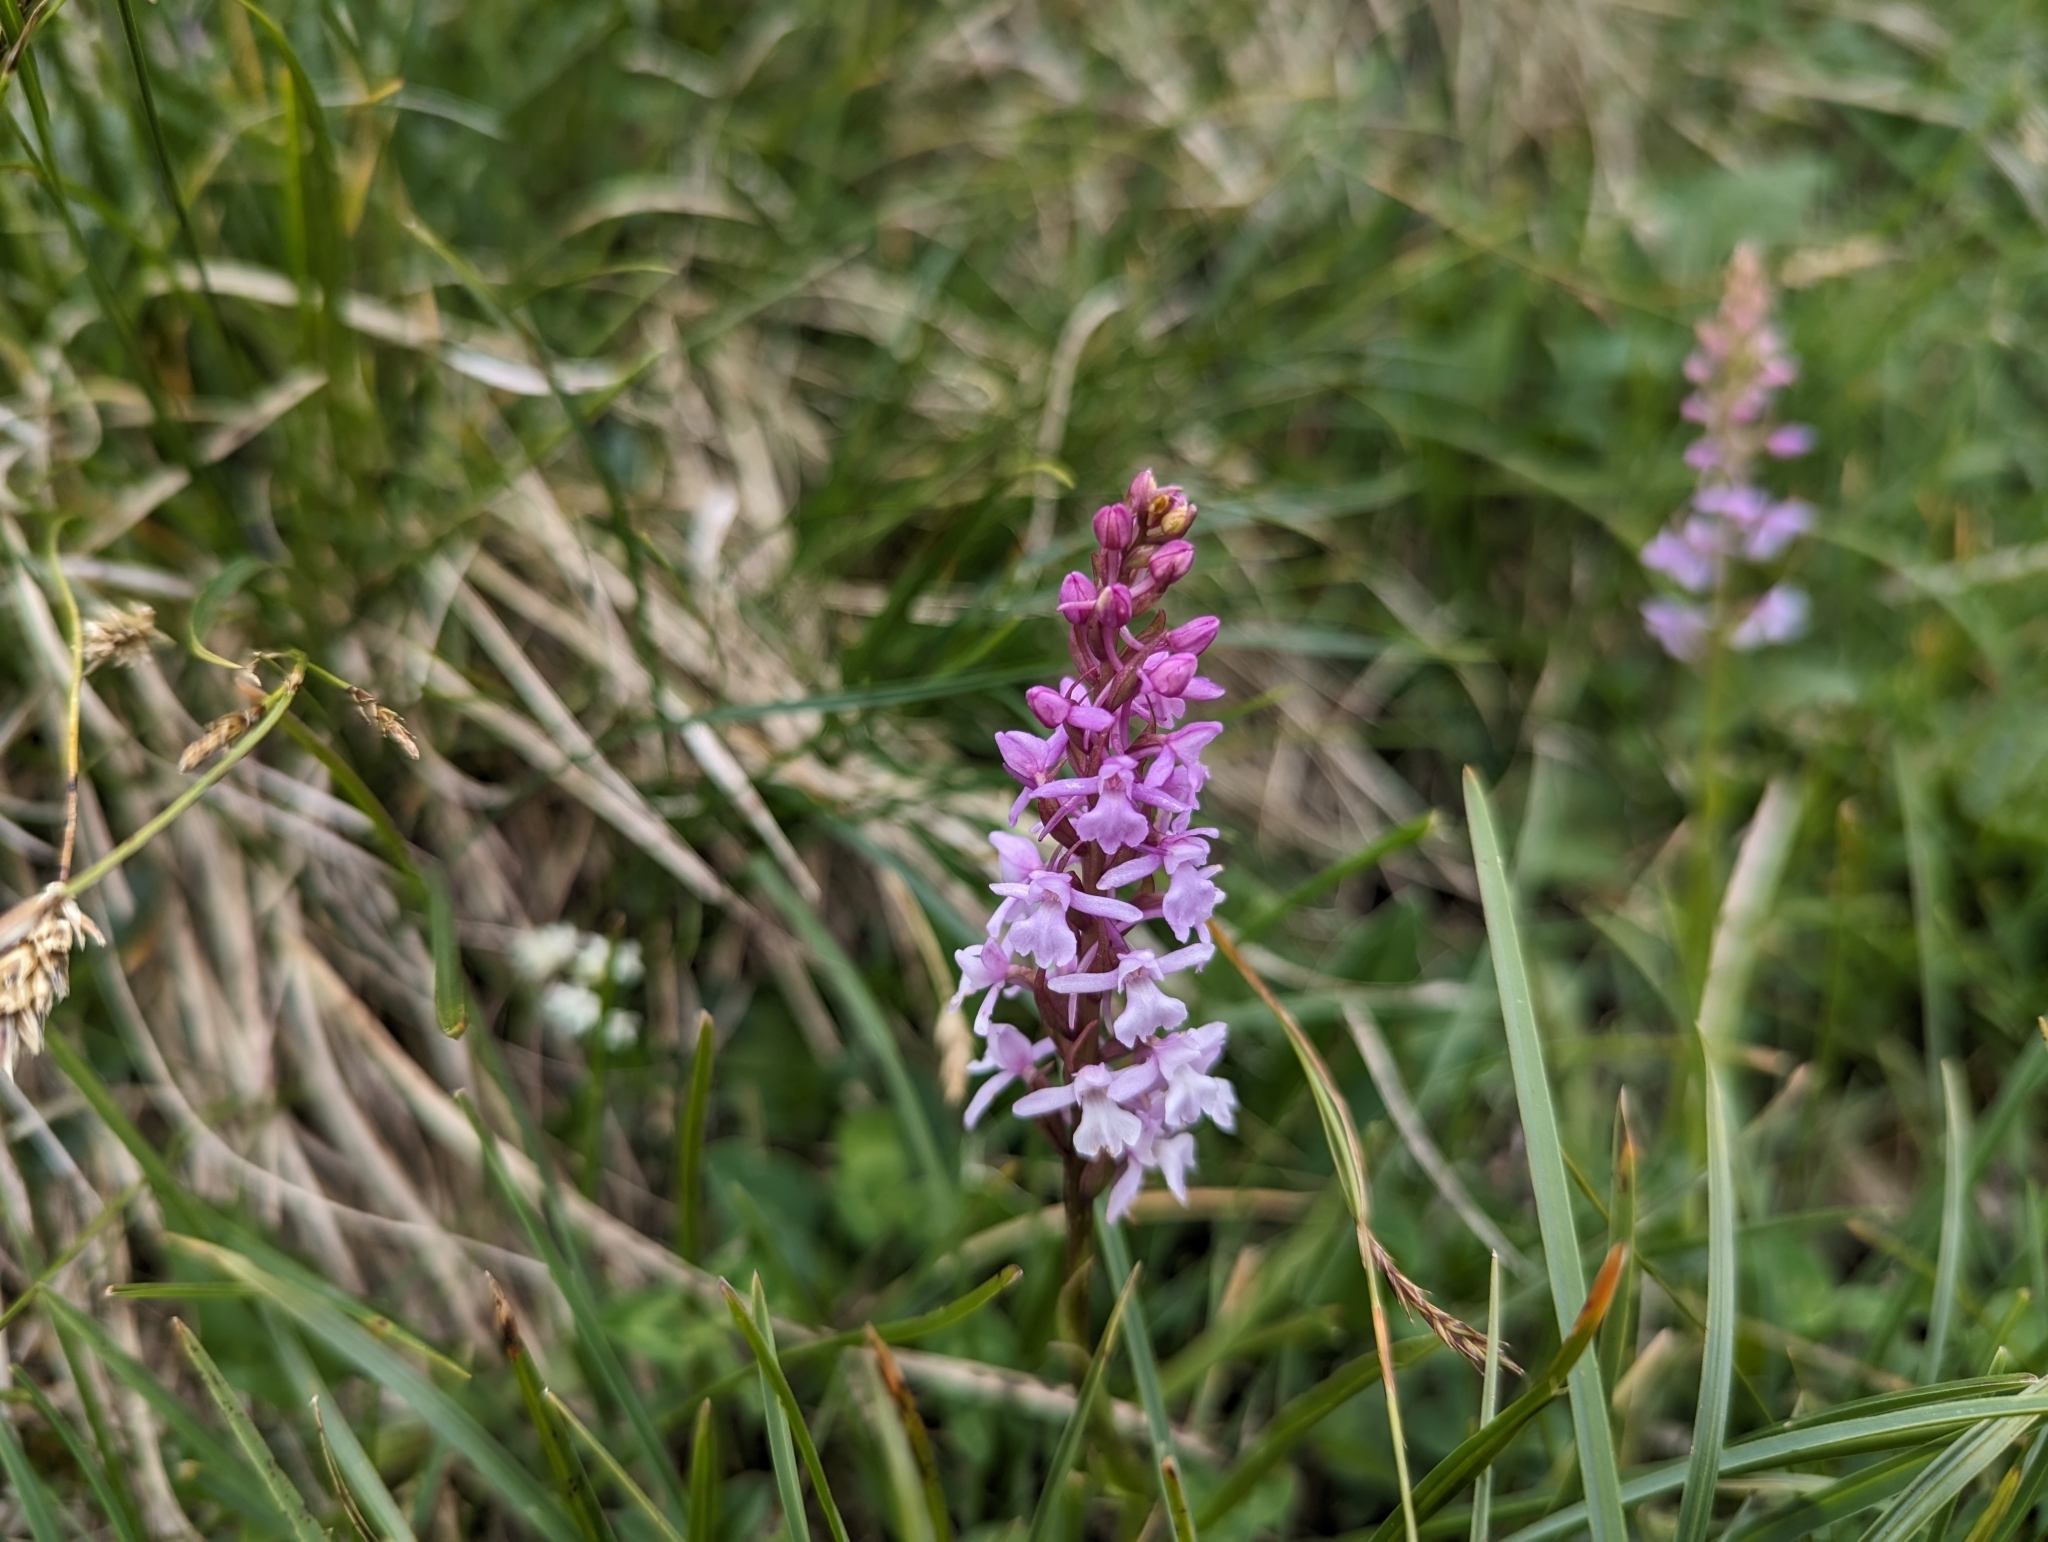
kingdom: Plantae
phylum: Tracheophyta
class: Liliopsida
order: Asparagales
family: Orchidaceae
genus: Gymnadenia
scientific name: Gymnadenia conopsea
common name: Fragrant orchid
